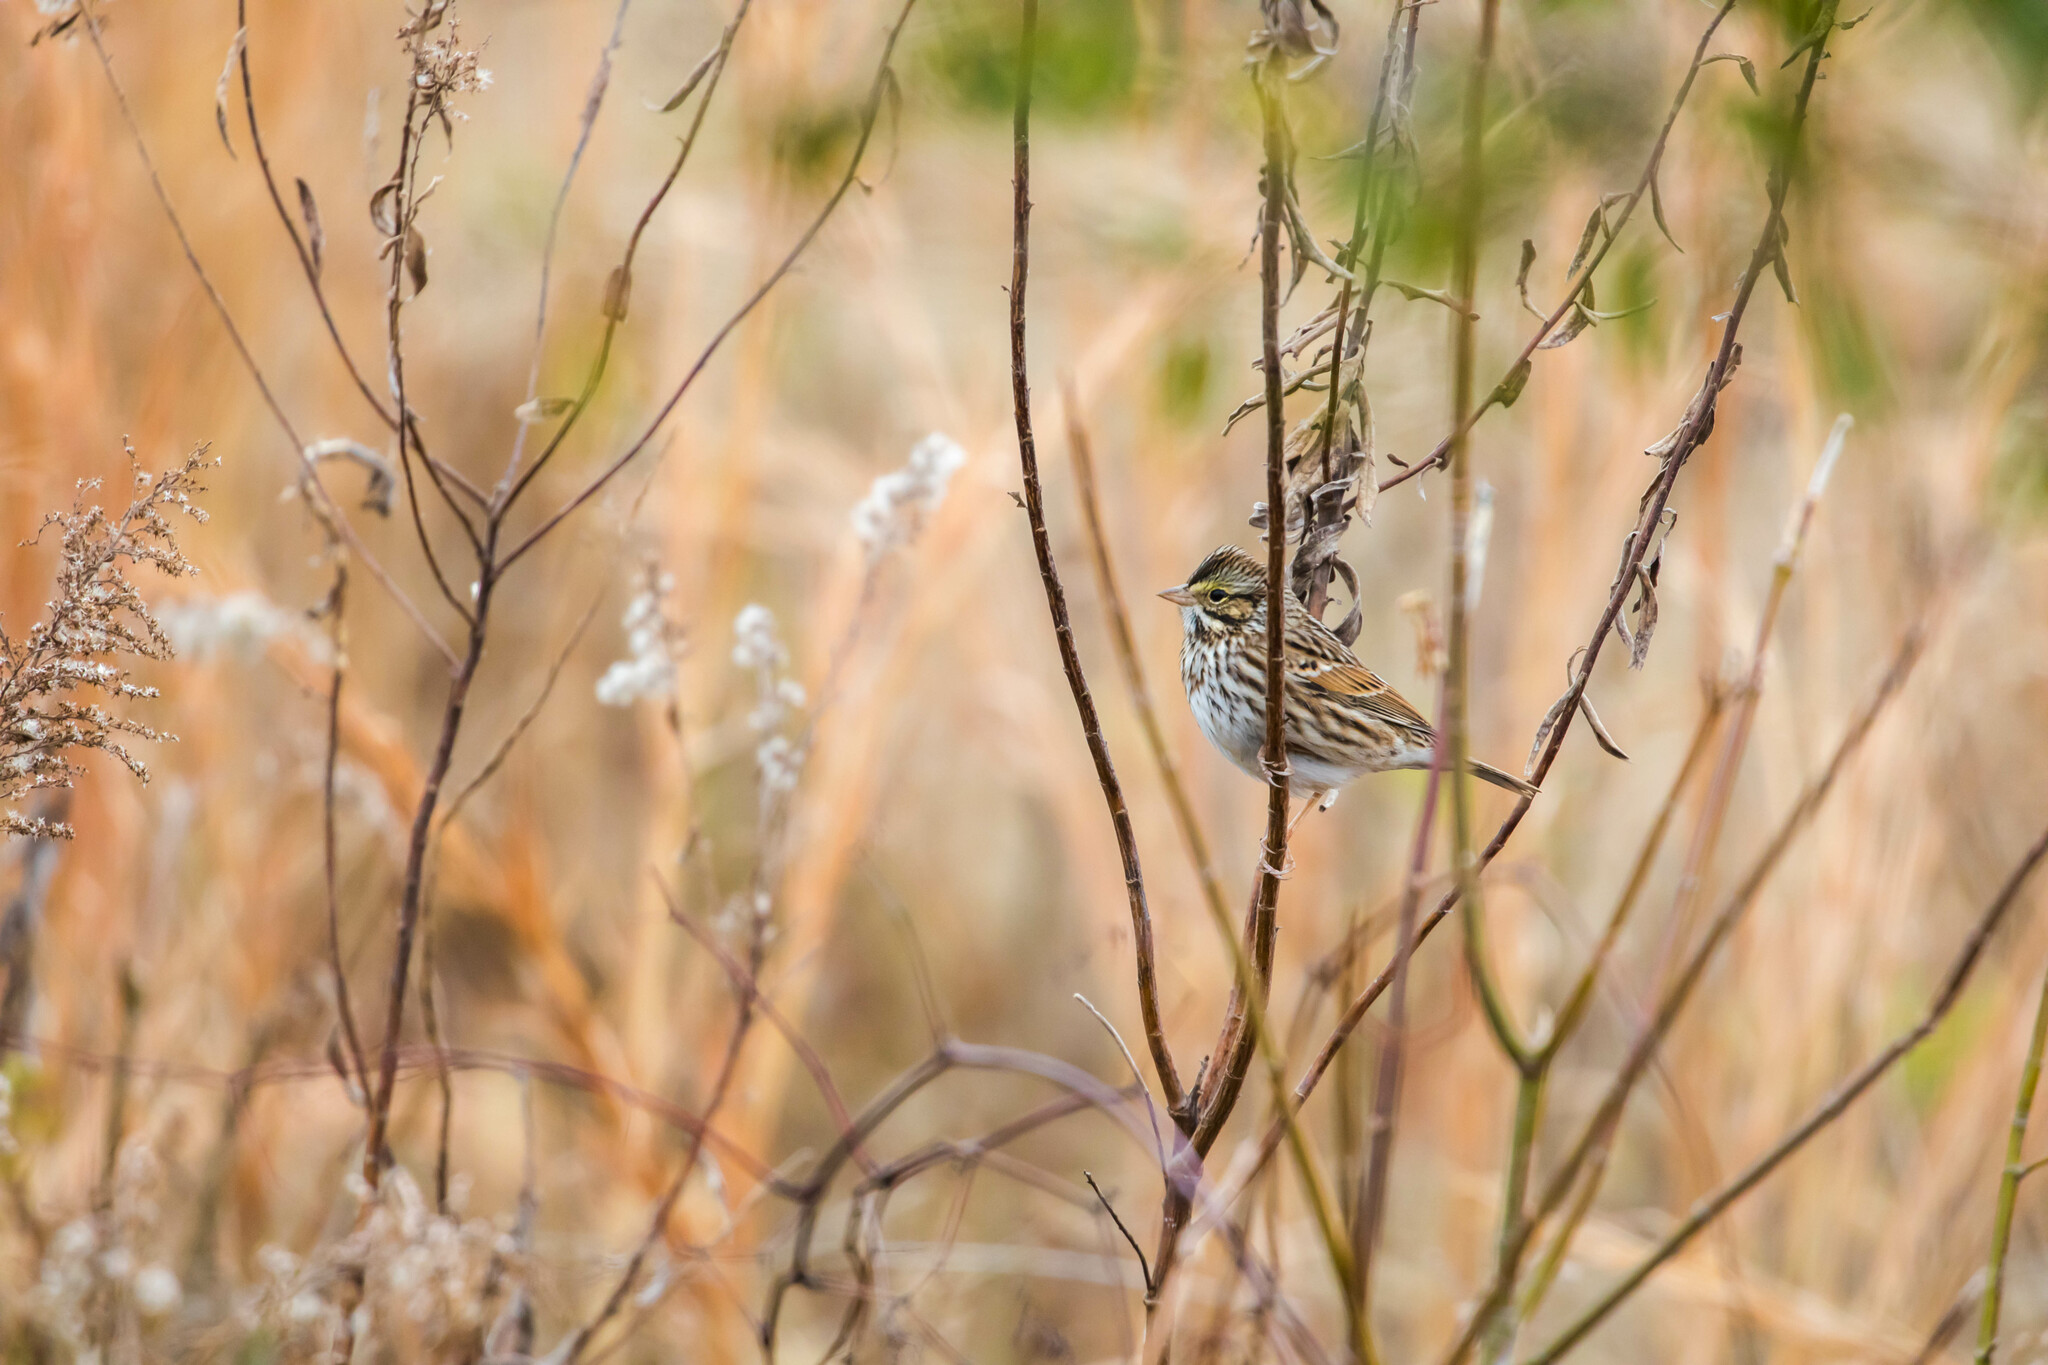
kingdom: Animalia
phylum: Chordata
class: Aves
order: Passeriformes
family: Passerellidae
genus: Passerculus
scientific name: Passerculus sandwichensis
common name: Savannah sparrow
